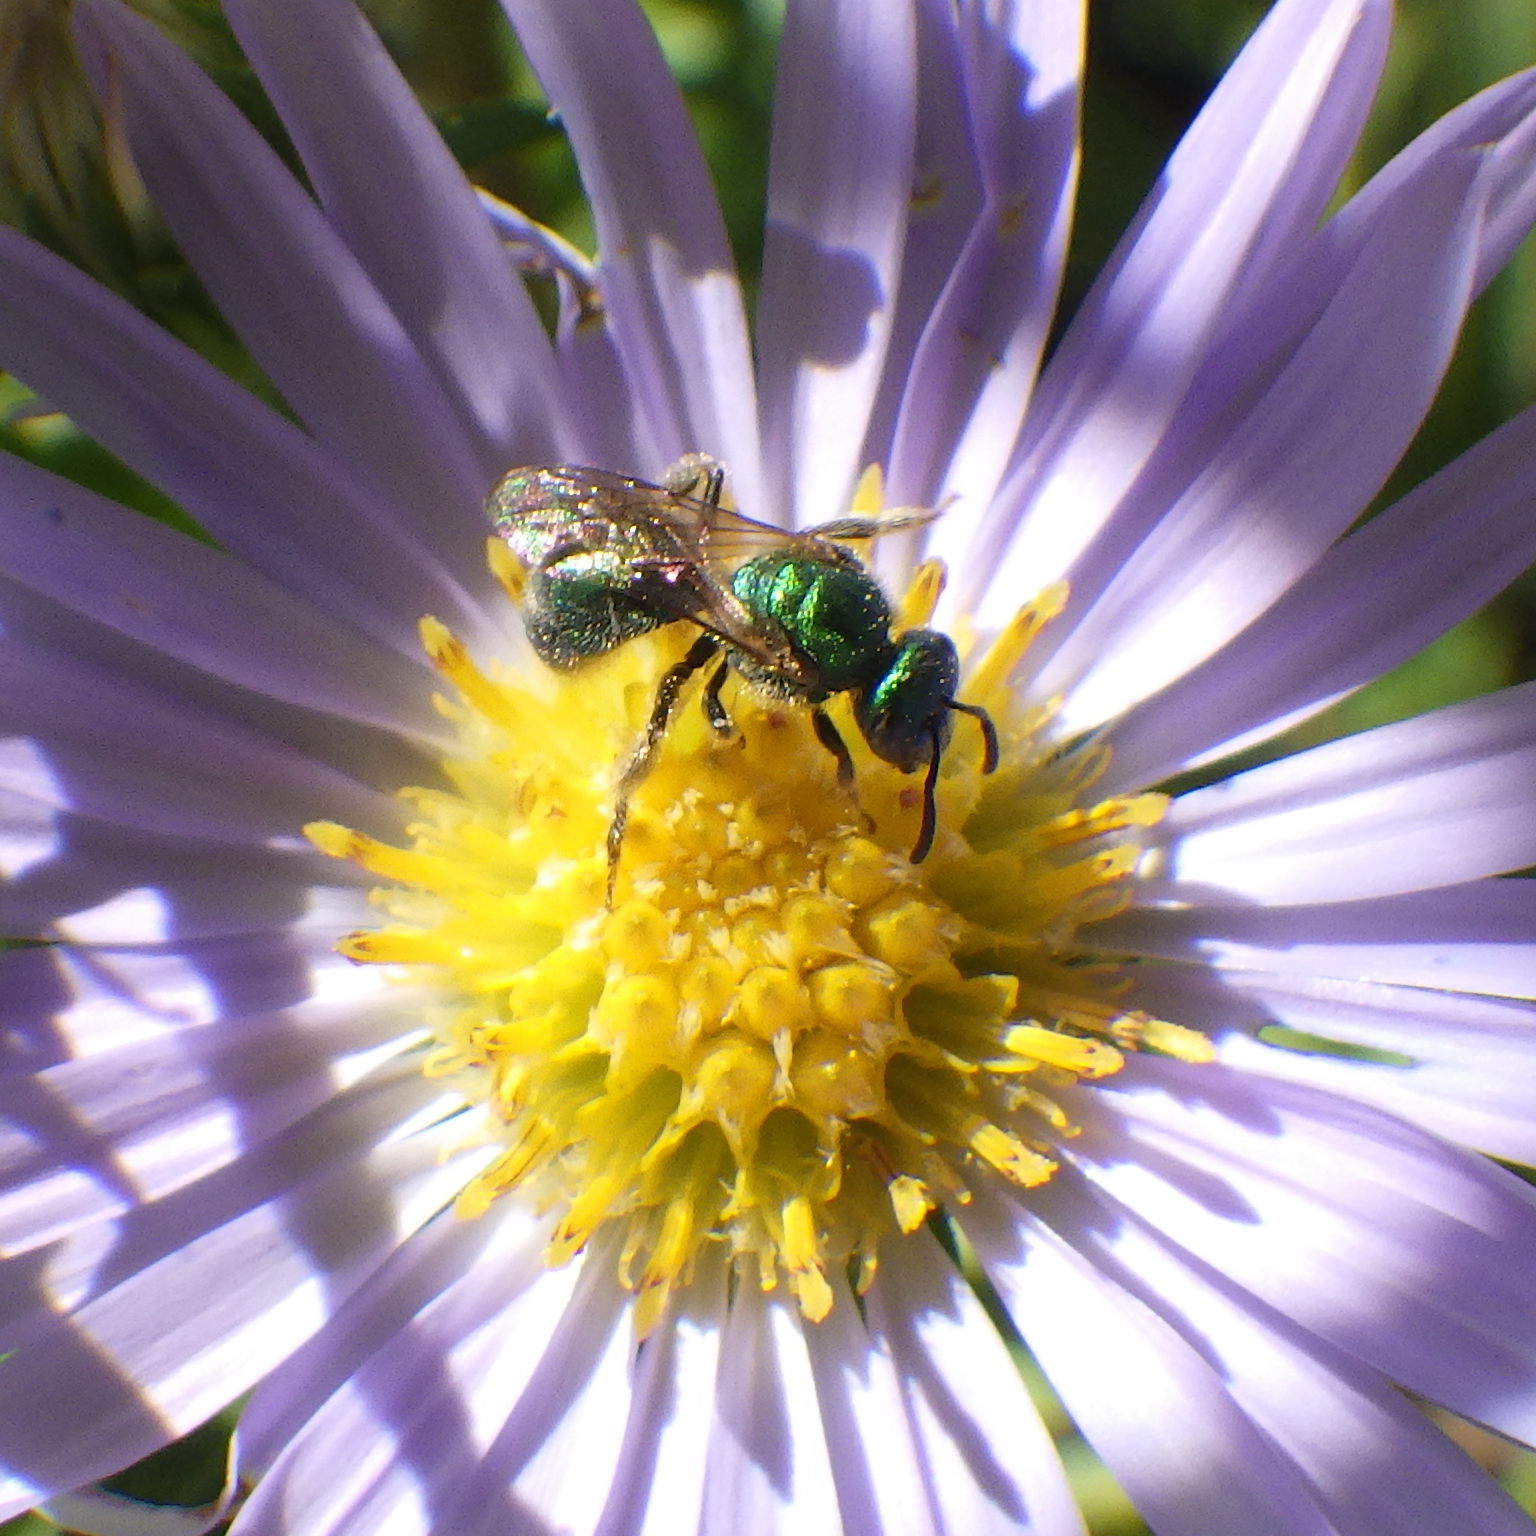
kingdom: Animalia
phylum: Arthropoda
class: Insecta
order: Hymenoptera
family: Halictidae
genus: Augochlorella
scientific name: Augochlorella aurata
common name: Golden sweat bee
